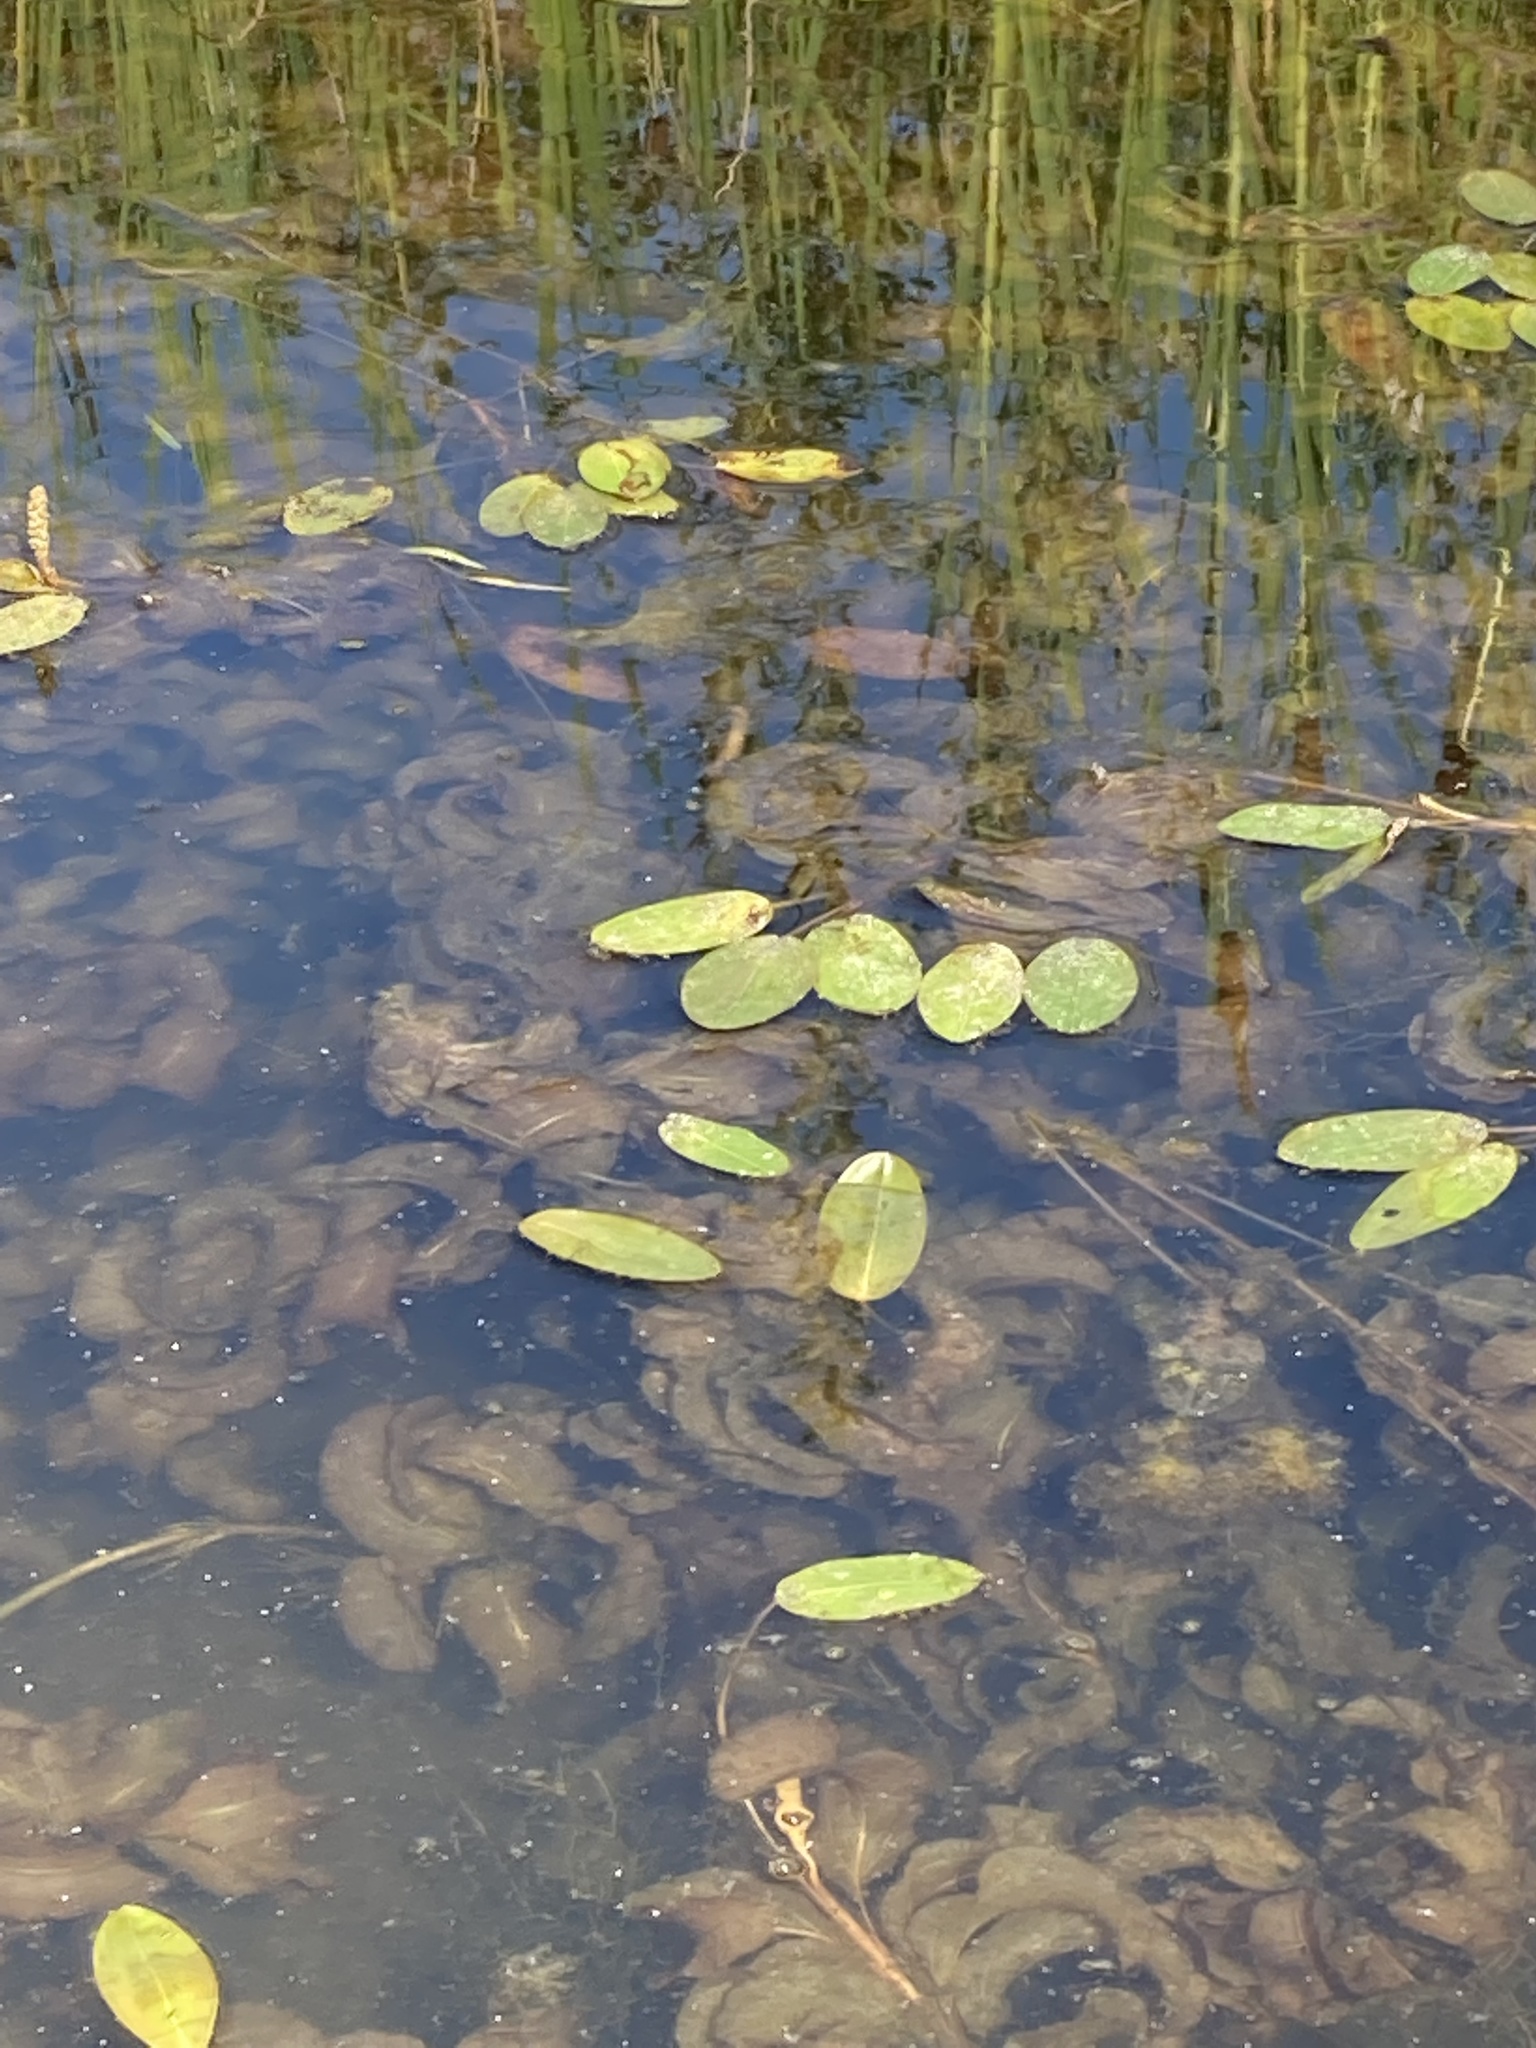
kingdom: Plantae
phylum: Tracheophyta
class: Liliopsida
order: Alismatales
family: Potamogetonaceae
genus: Potamogeton
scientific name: Potamogeton amplifolius
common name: Broad-leaved pondweed
